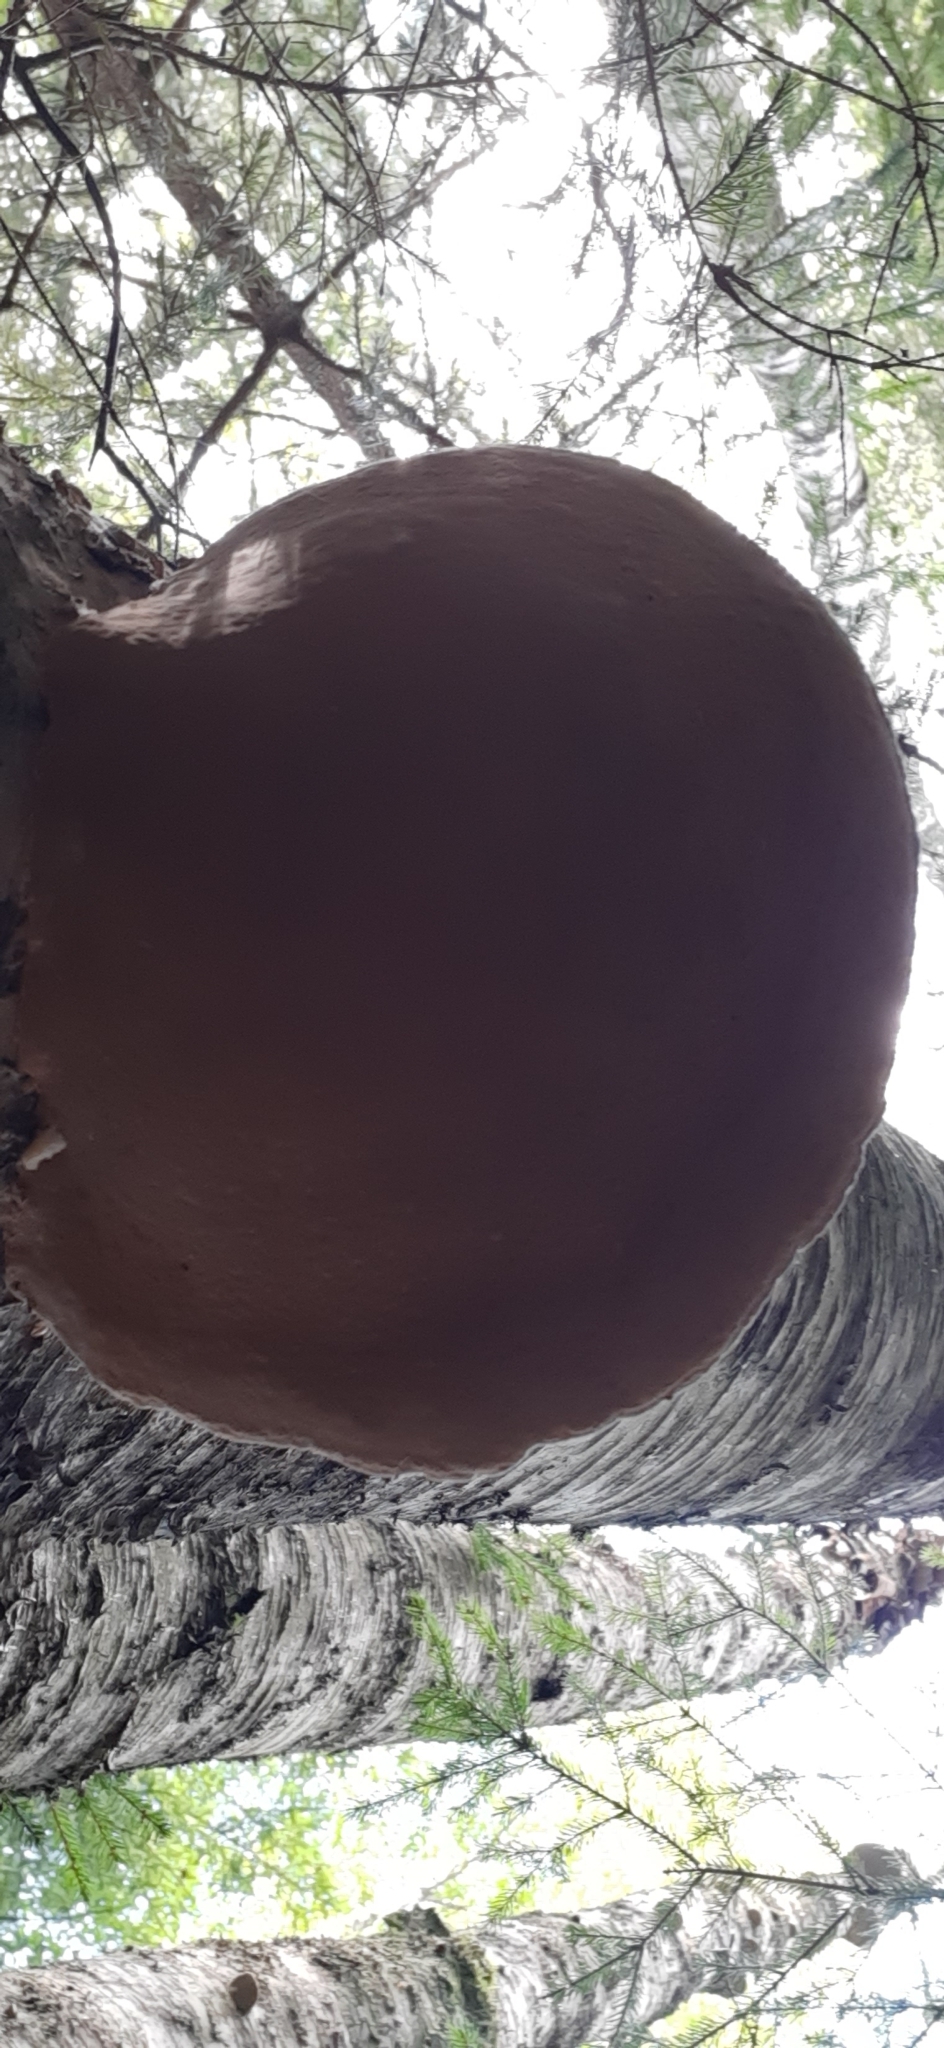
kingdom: Fungi
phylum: Basidiomycota
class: Agaricomycetes
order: Hymenochaetales
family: Hymenochaetaceae
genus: Phellinus
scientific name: Phellinus igniarius
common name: Willow bracket
